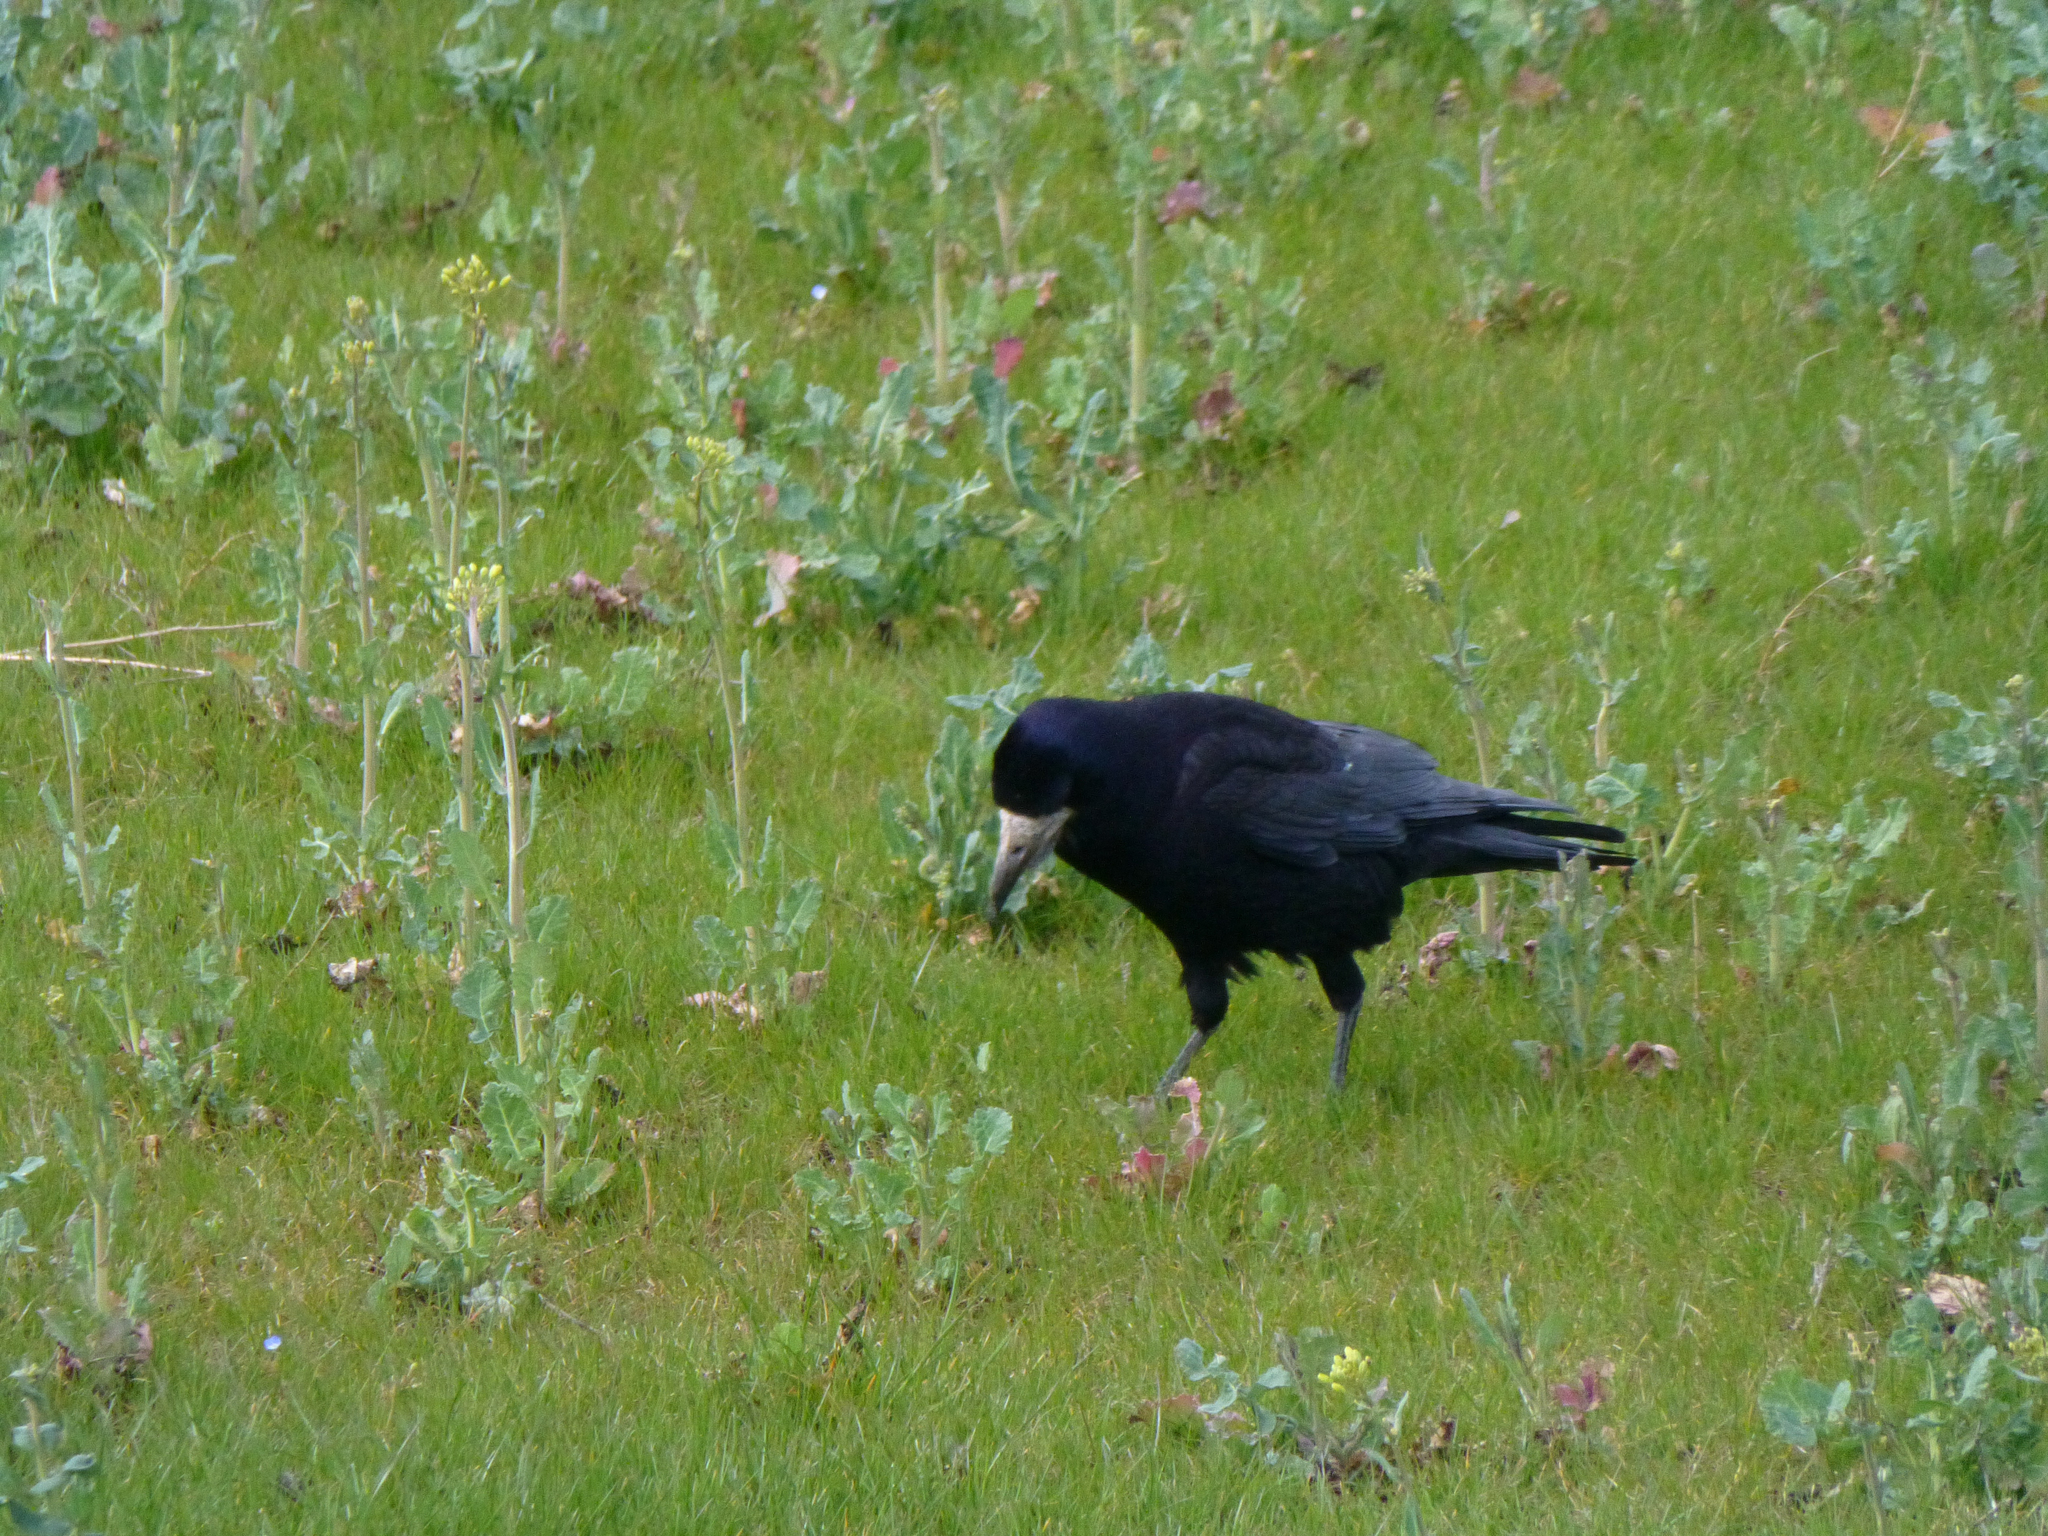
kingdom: Animalia
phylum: Chordata
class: Aves
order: Passeriformes
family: Corvidae
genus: Corvus
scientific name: Corvus frugilegus
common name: Rook
